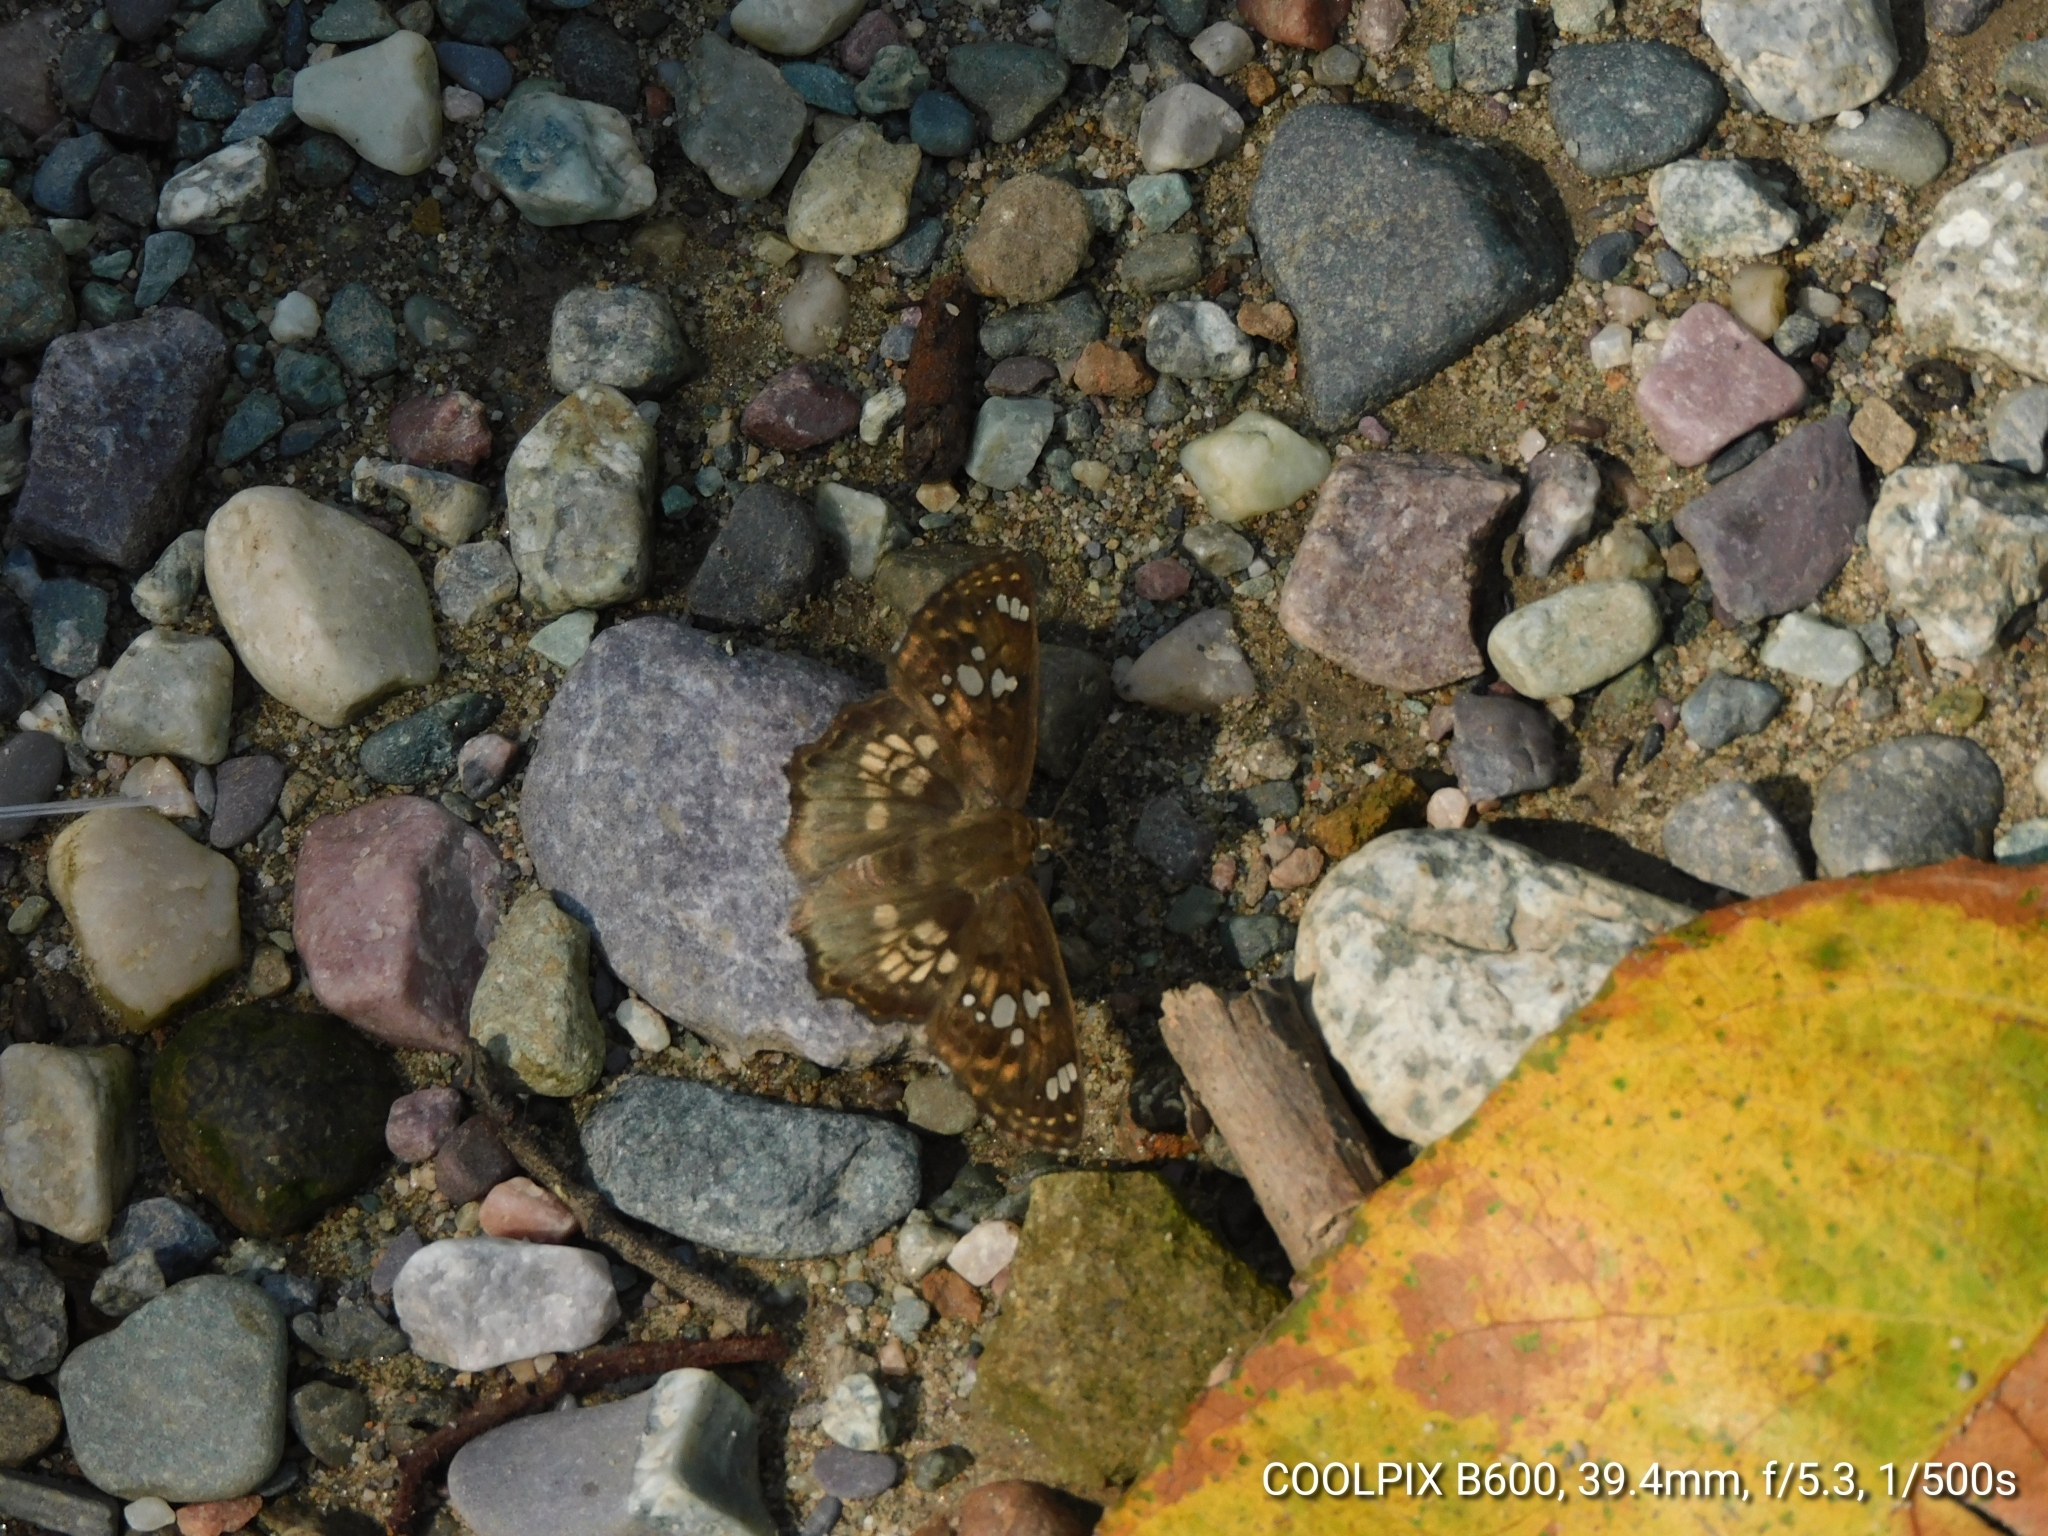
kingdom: Animalia
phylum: Arthropoda
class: Insecta
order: Lepidoptera
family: Hesperiidae
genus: Caprona
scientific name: Caprona ransonnettii
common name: Golden angle
